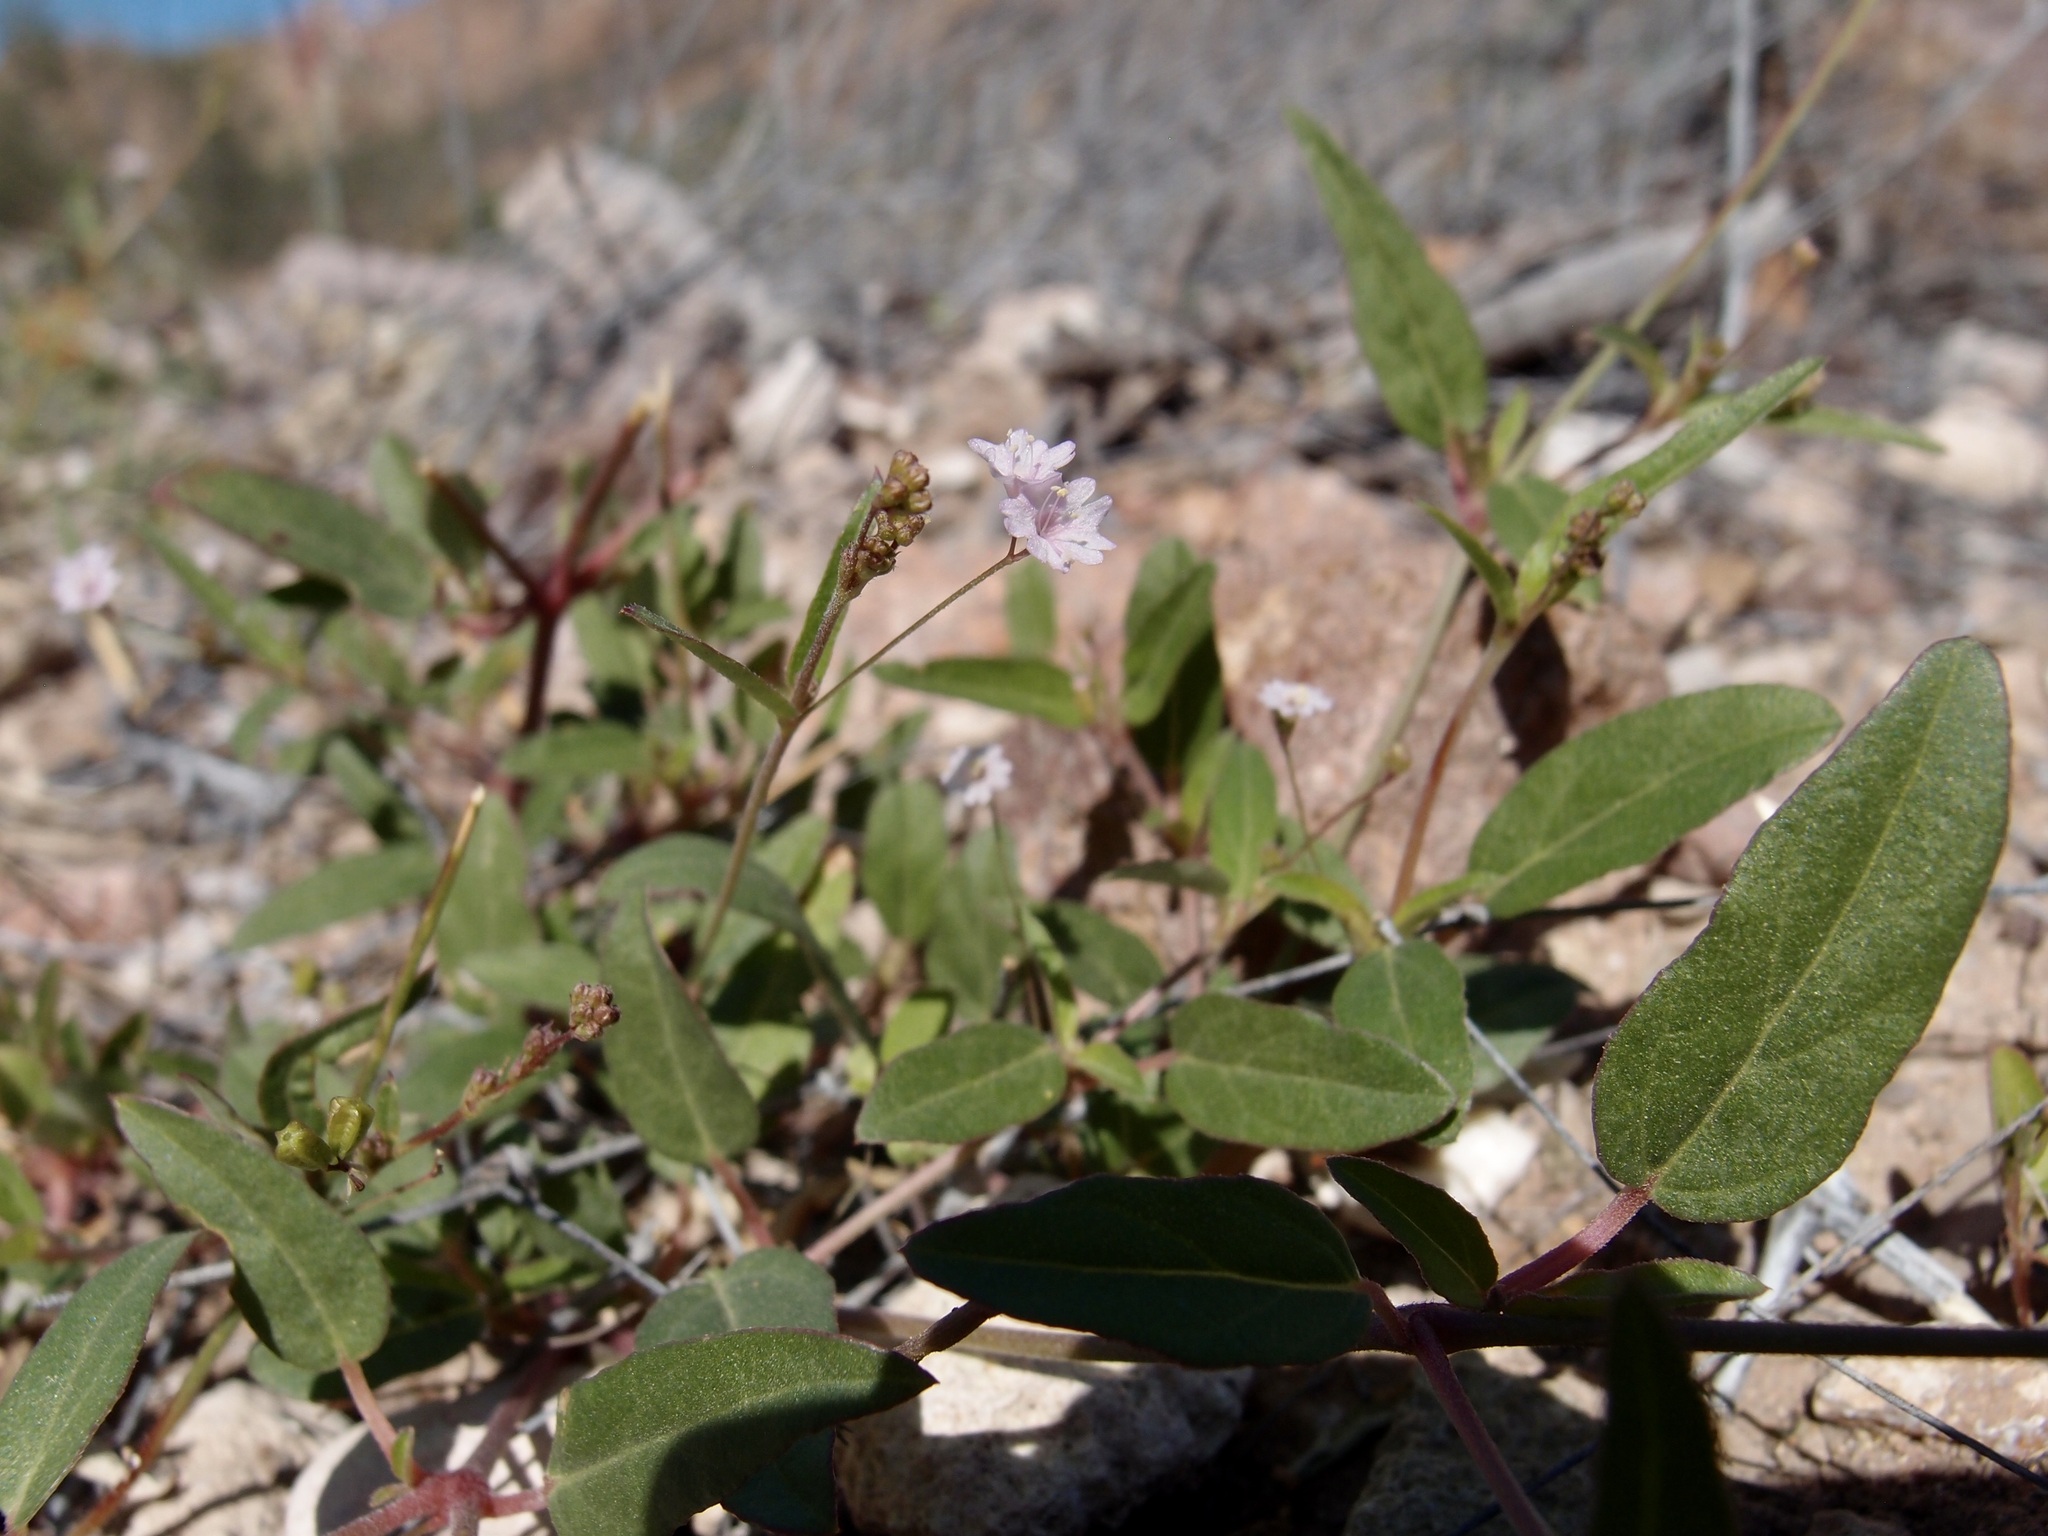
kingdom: Plantae
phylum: Tracheophyta
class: Magnoliopsida
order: Caryophyllales
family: Nyctaginaceae
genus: Boerhavia
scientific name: Boerhavia erecta
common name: Erect spiderling
